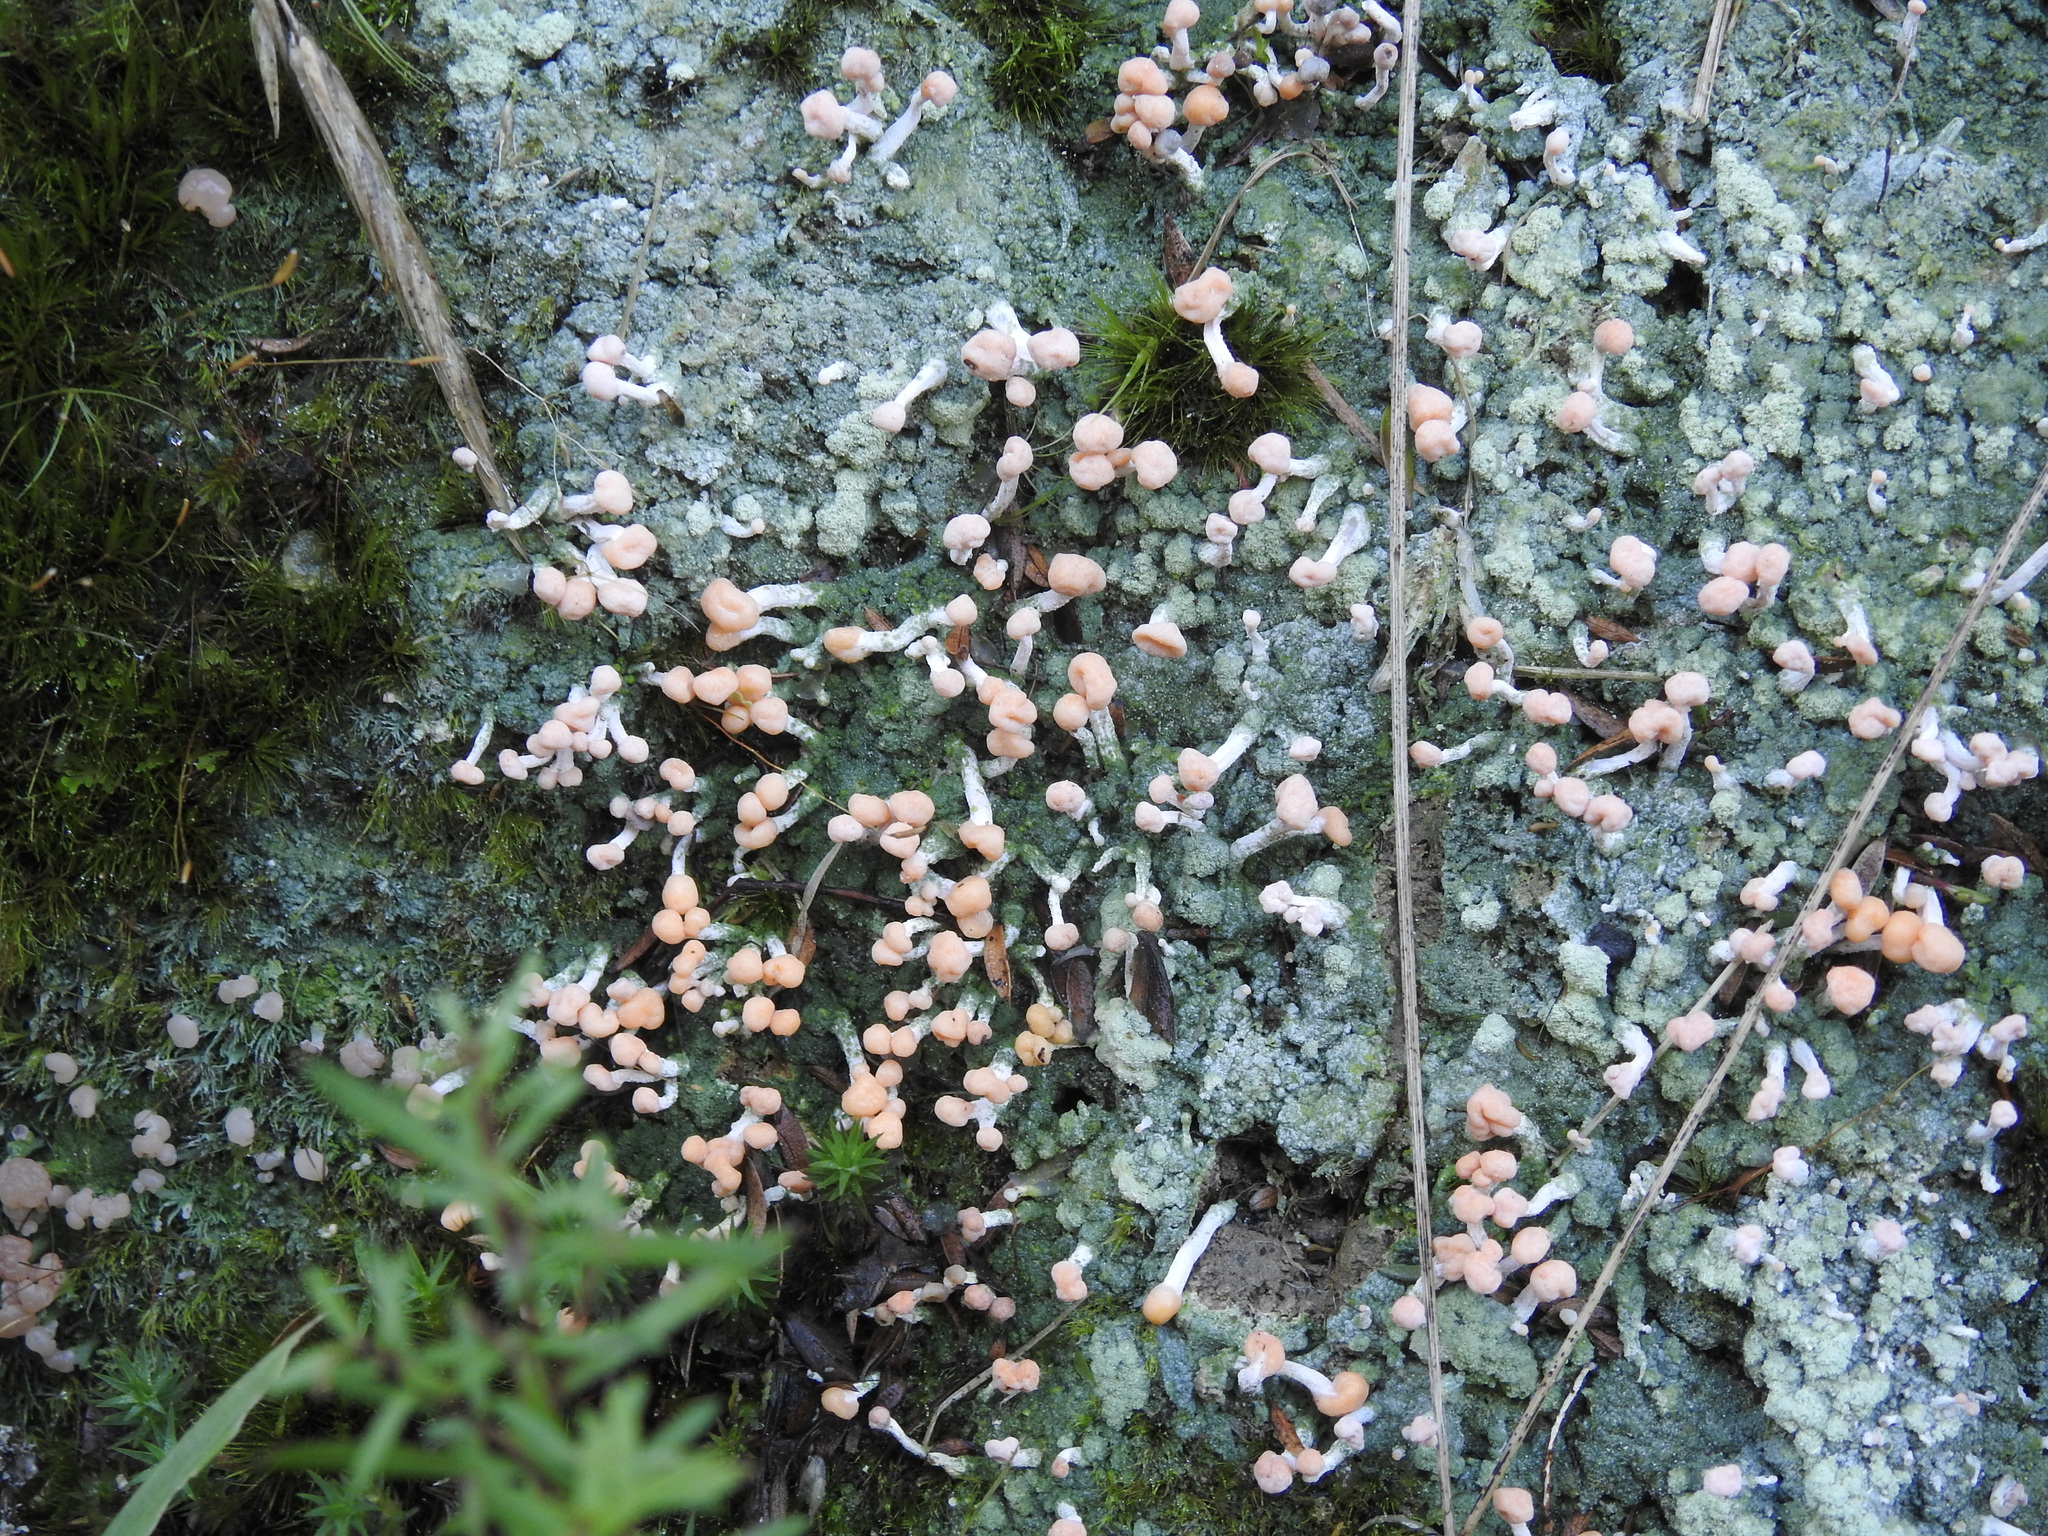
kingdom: Fungi
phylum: Ascomycota
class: Lecanoromycetes
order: Pertusariales
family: Icmadophilaceae
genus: Dibaeis
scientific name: Dibaeis arcuata
